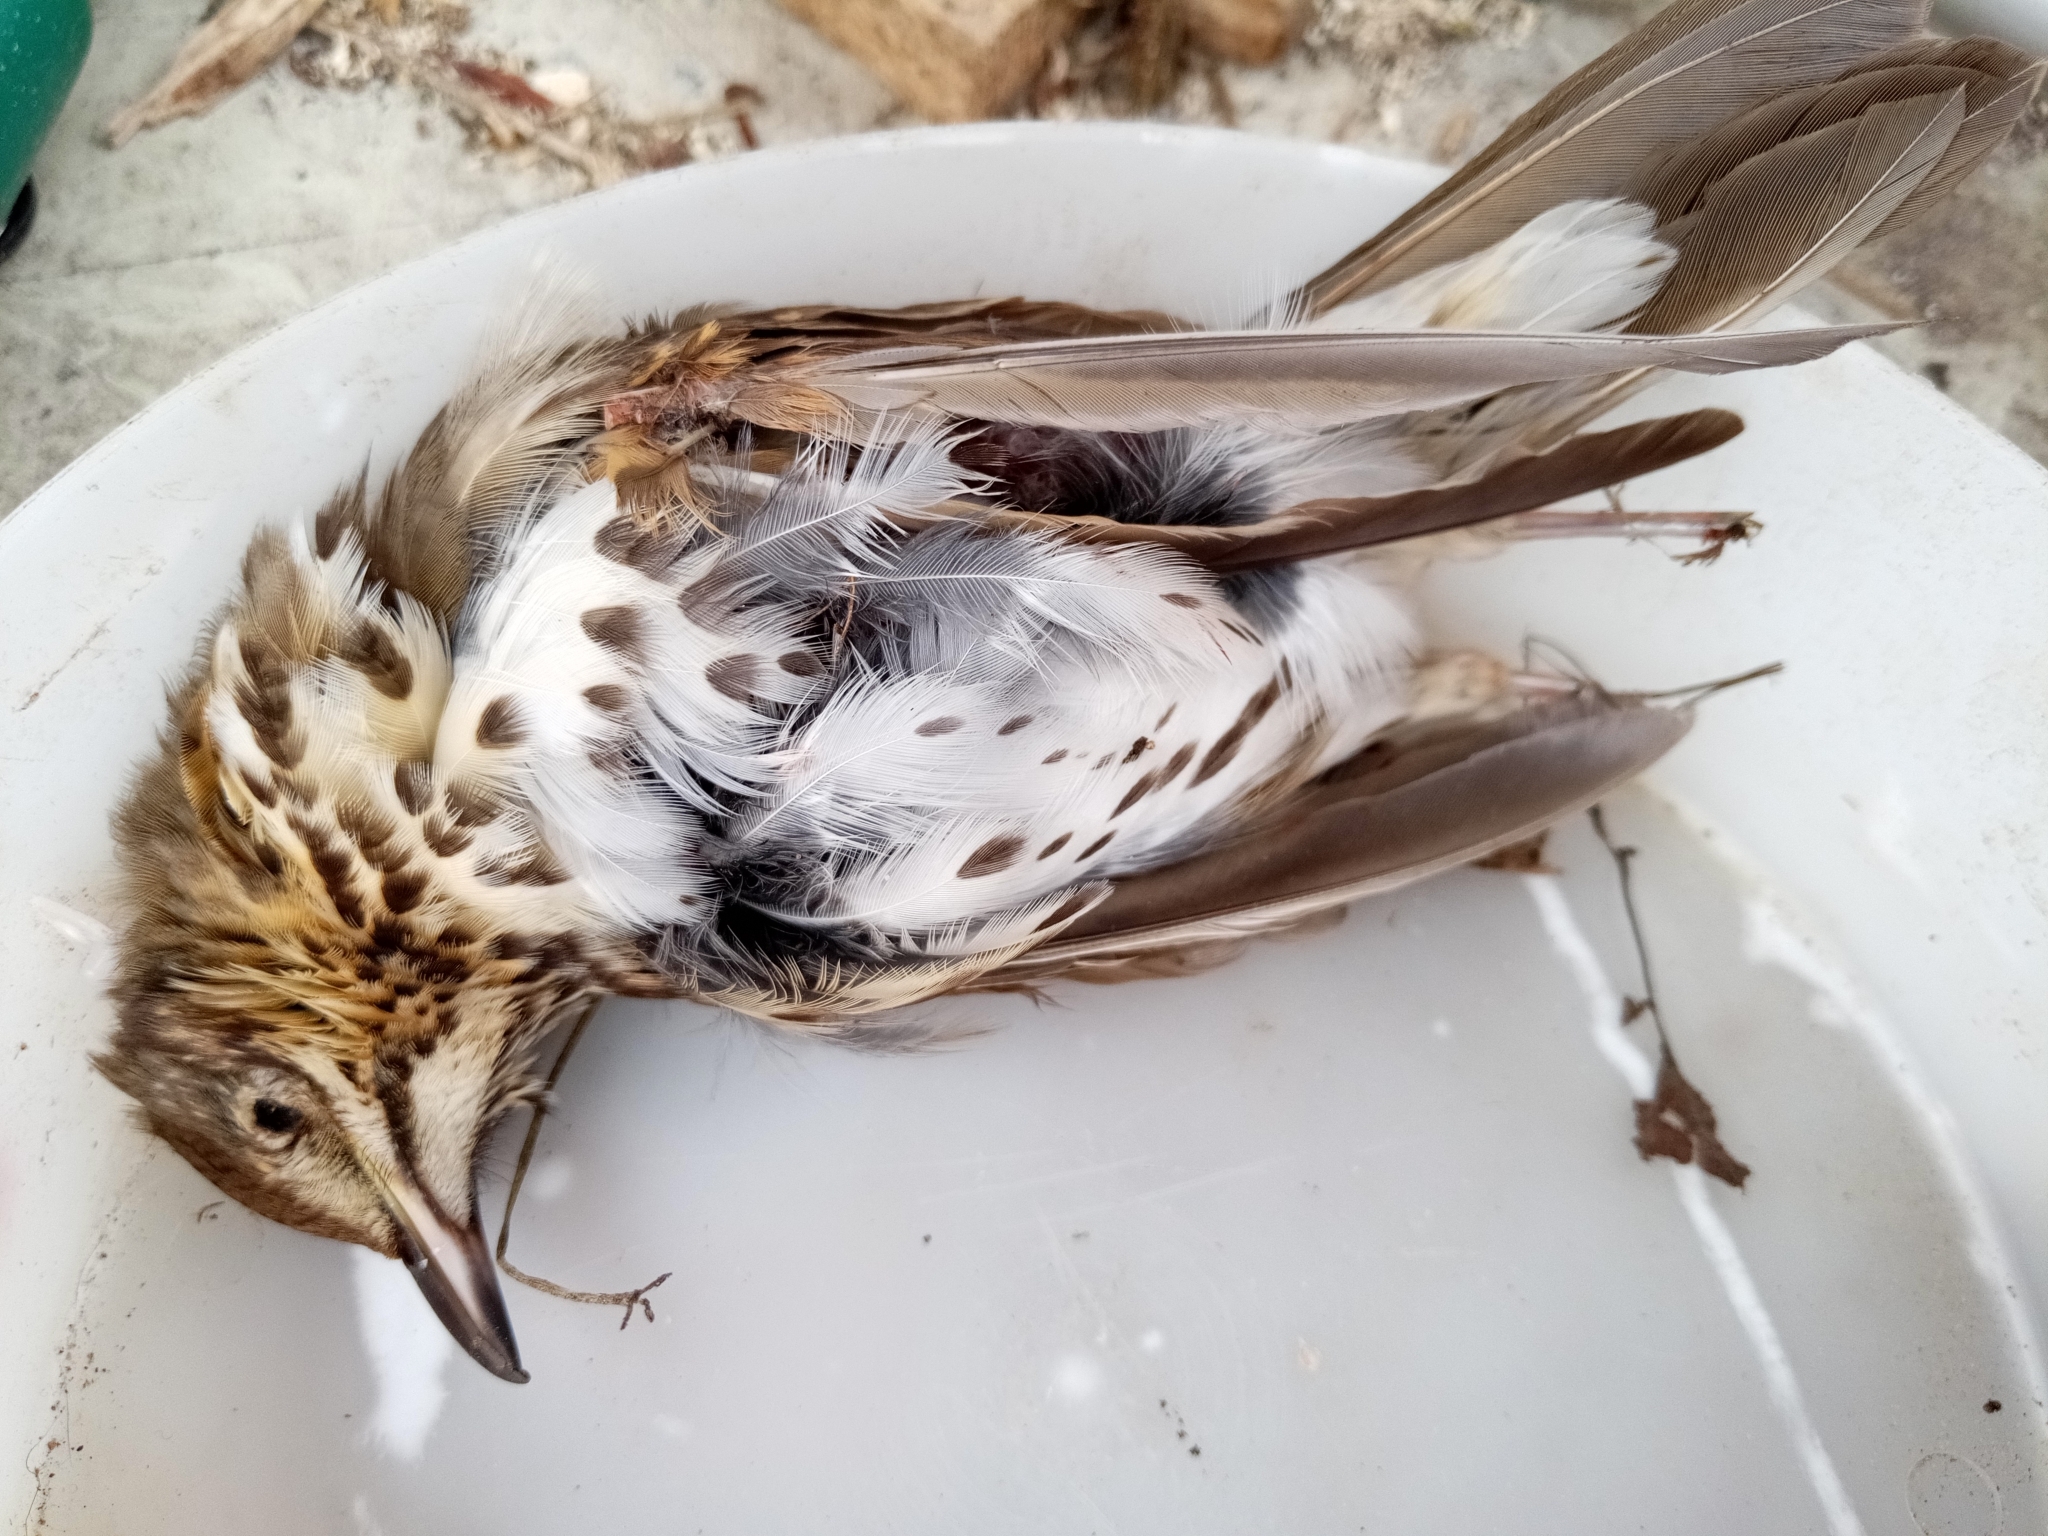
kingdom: Animalia
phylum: Chordata
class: Aves
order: Passeriformes
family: Turdidae
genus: Turdus
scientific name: Turdus philomelos
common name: Song thrush
